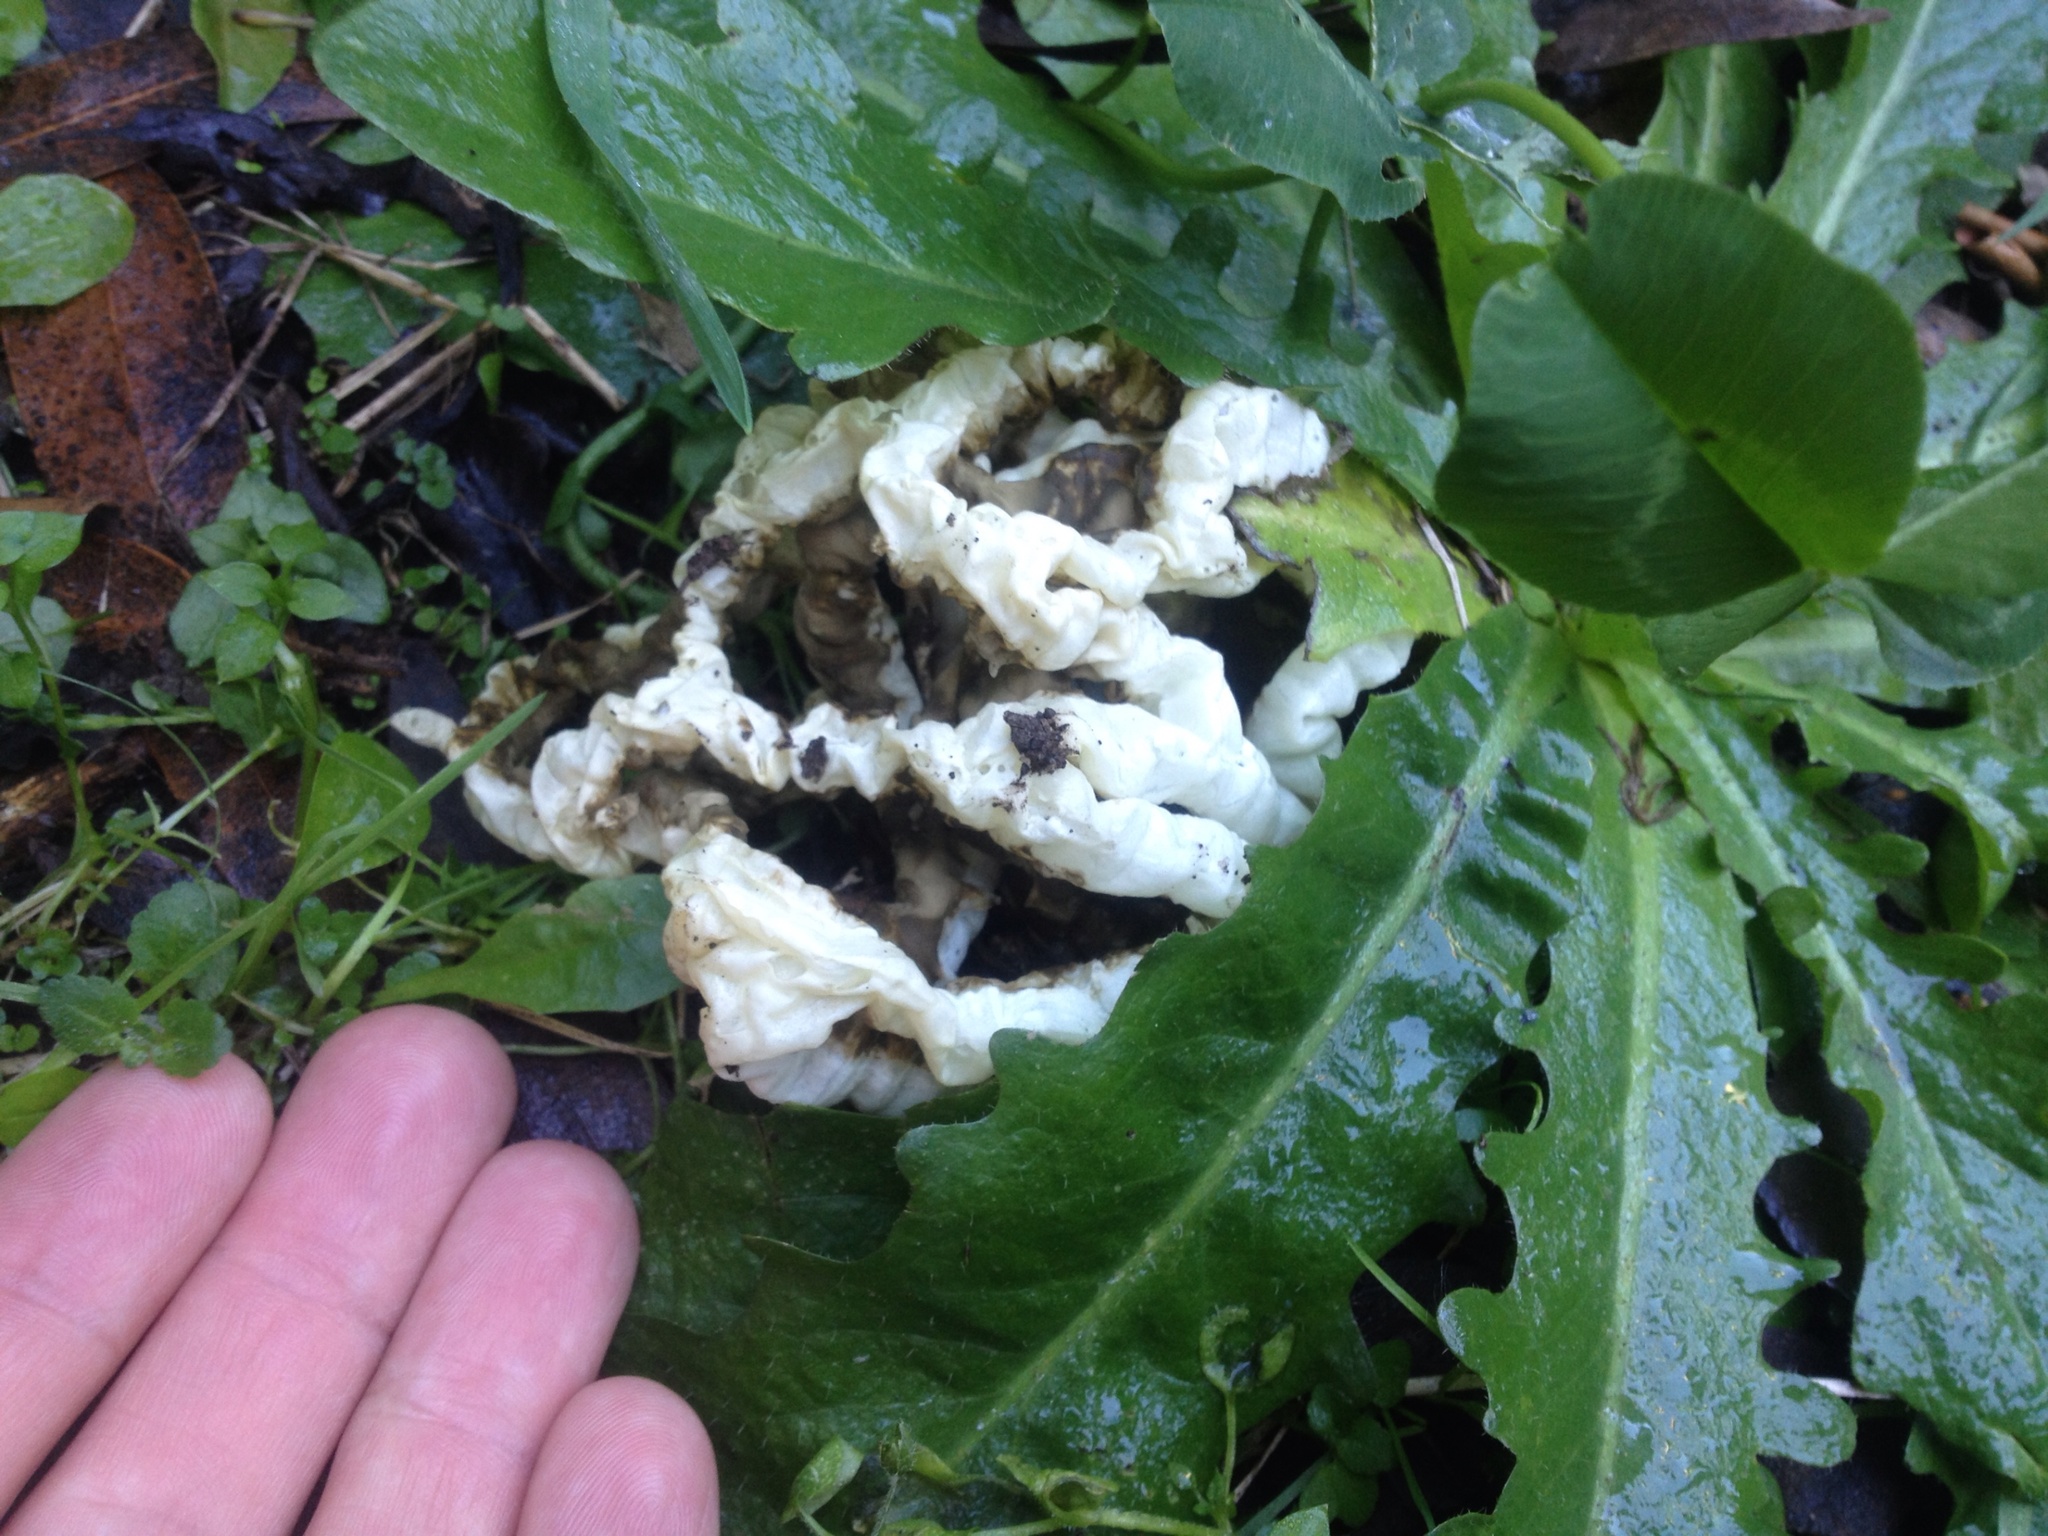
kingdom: Fungi
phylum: Basidiomycota
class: Agaricomycetes
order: Phallales
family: Phallaceae
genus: Ileodictyon
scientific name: Ileodictyon cibarium
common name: Basket fungus
